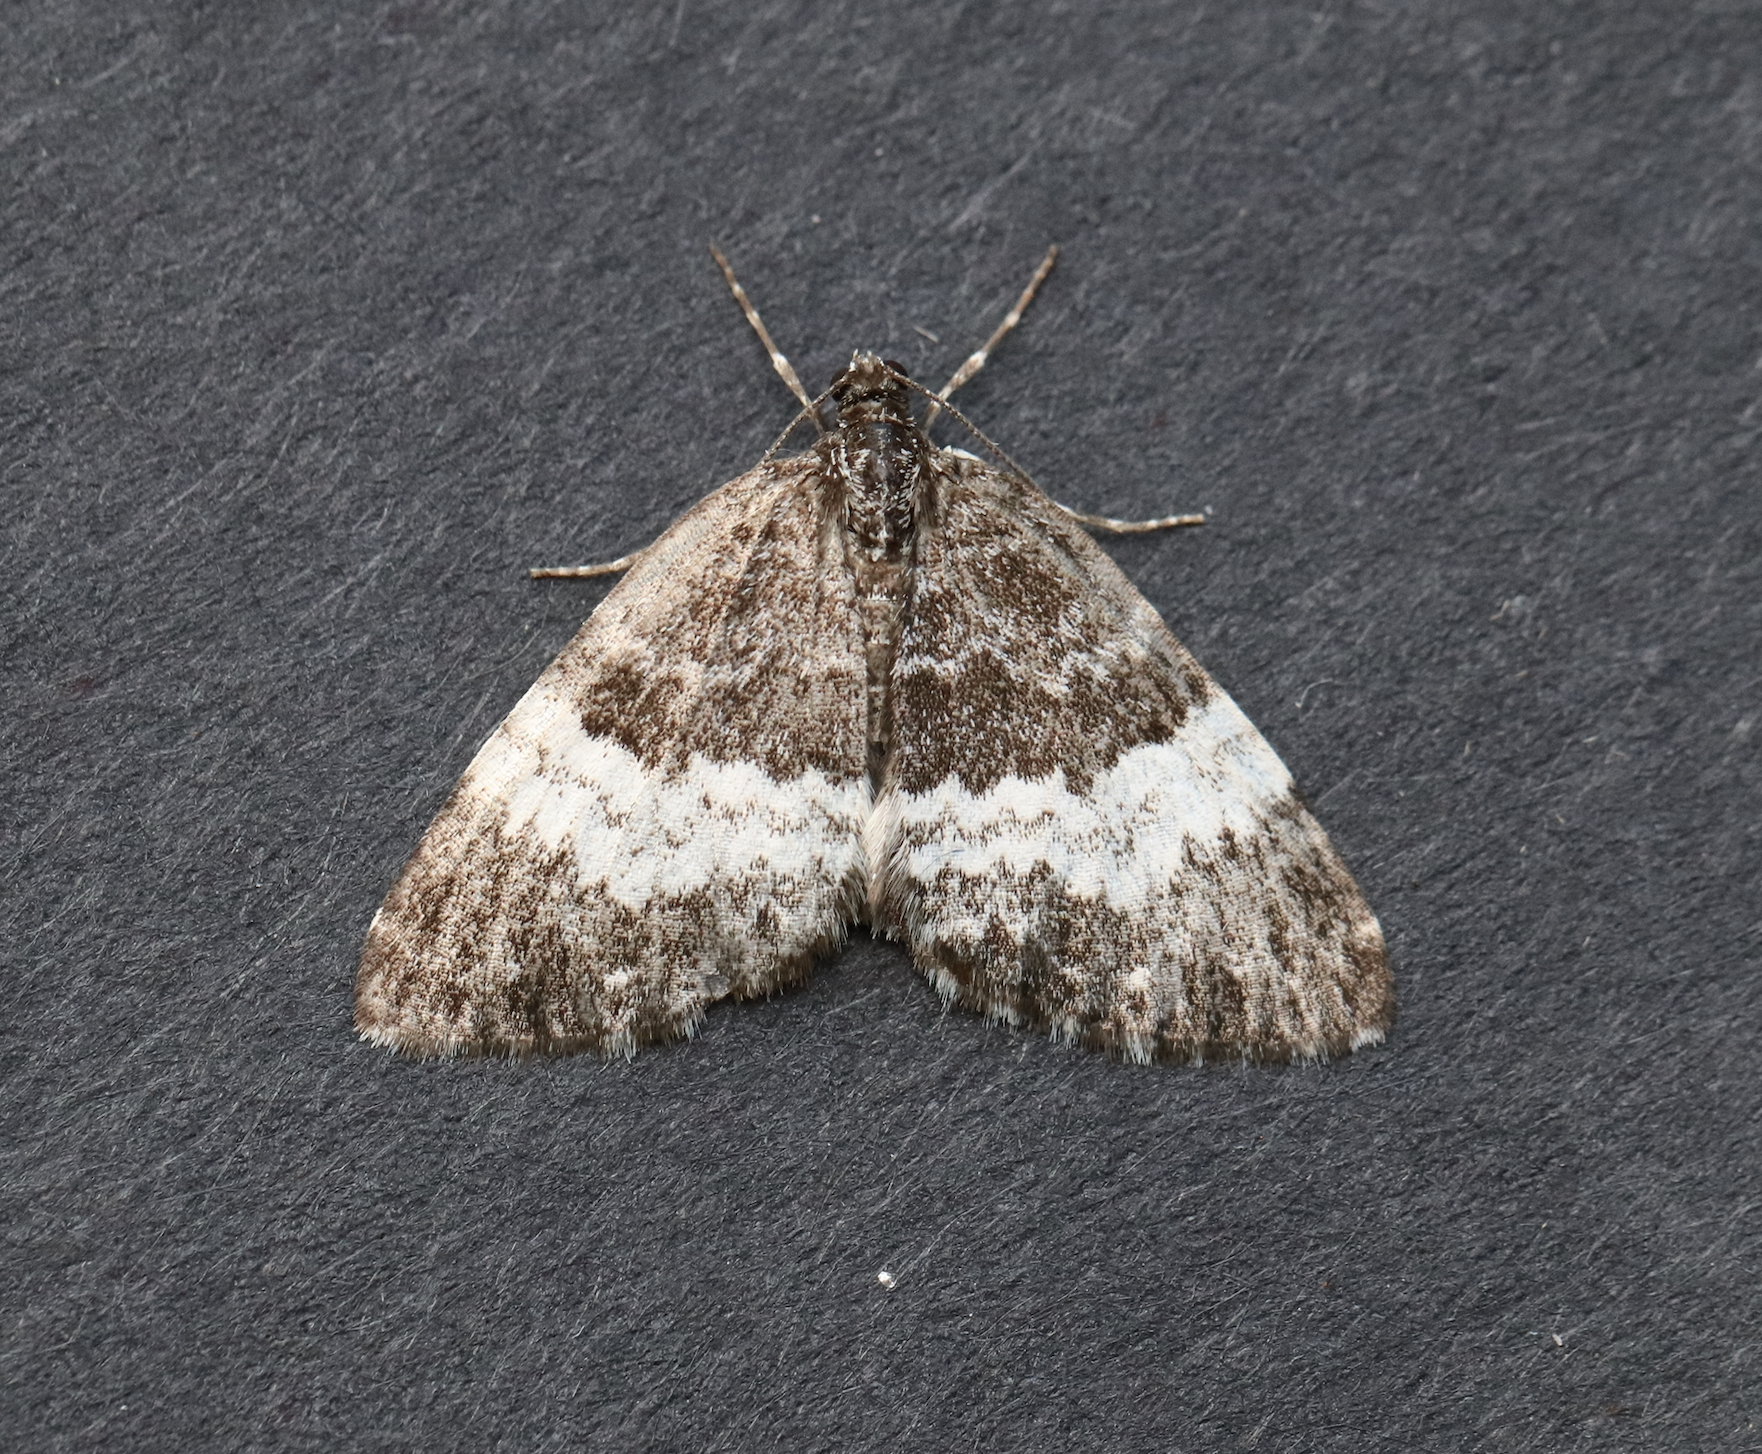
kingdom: Animalia
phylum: Arthropoda
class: Insecta
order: Lepidoptera
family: Geometridae
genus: Spargania
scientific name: Spargania luctuata
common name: White-banded carpet
